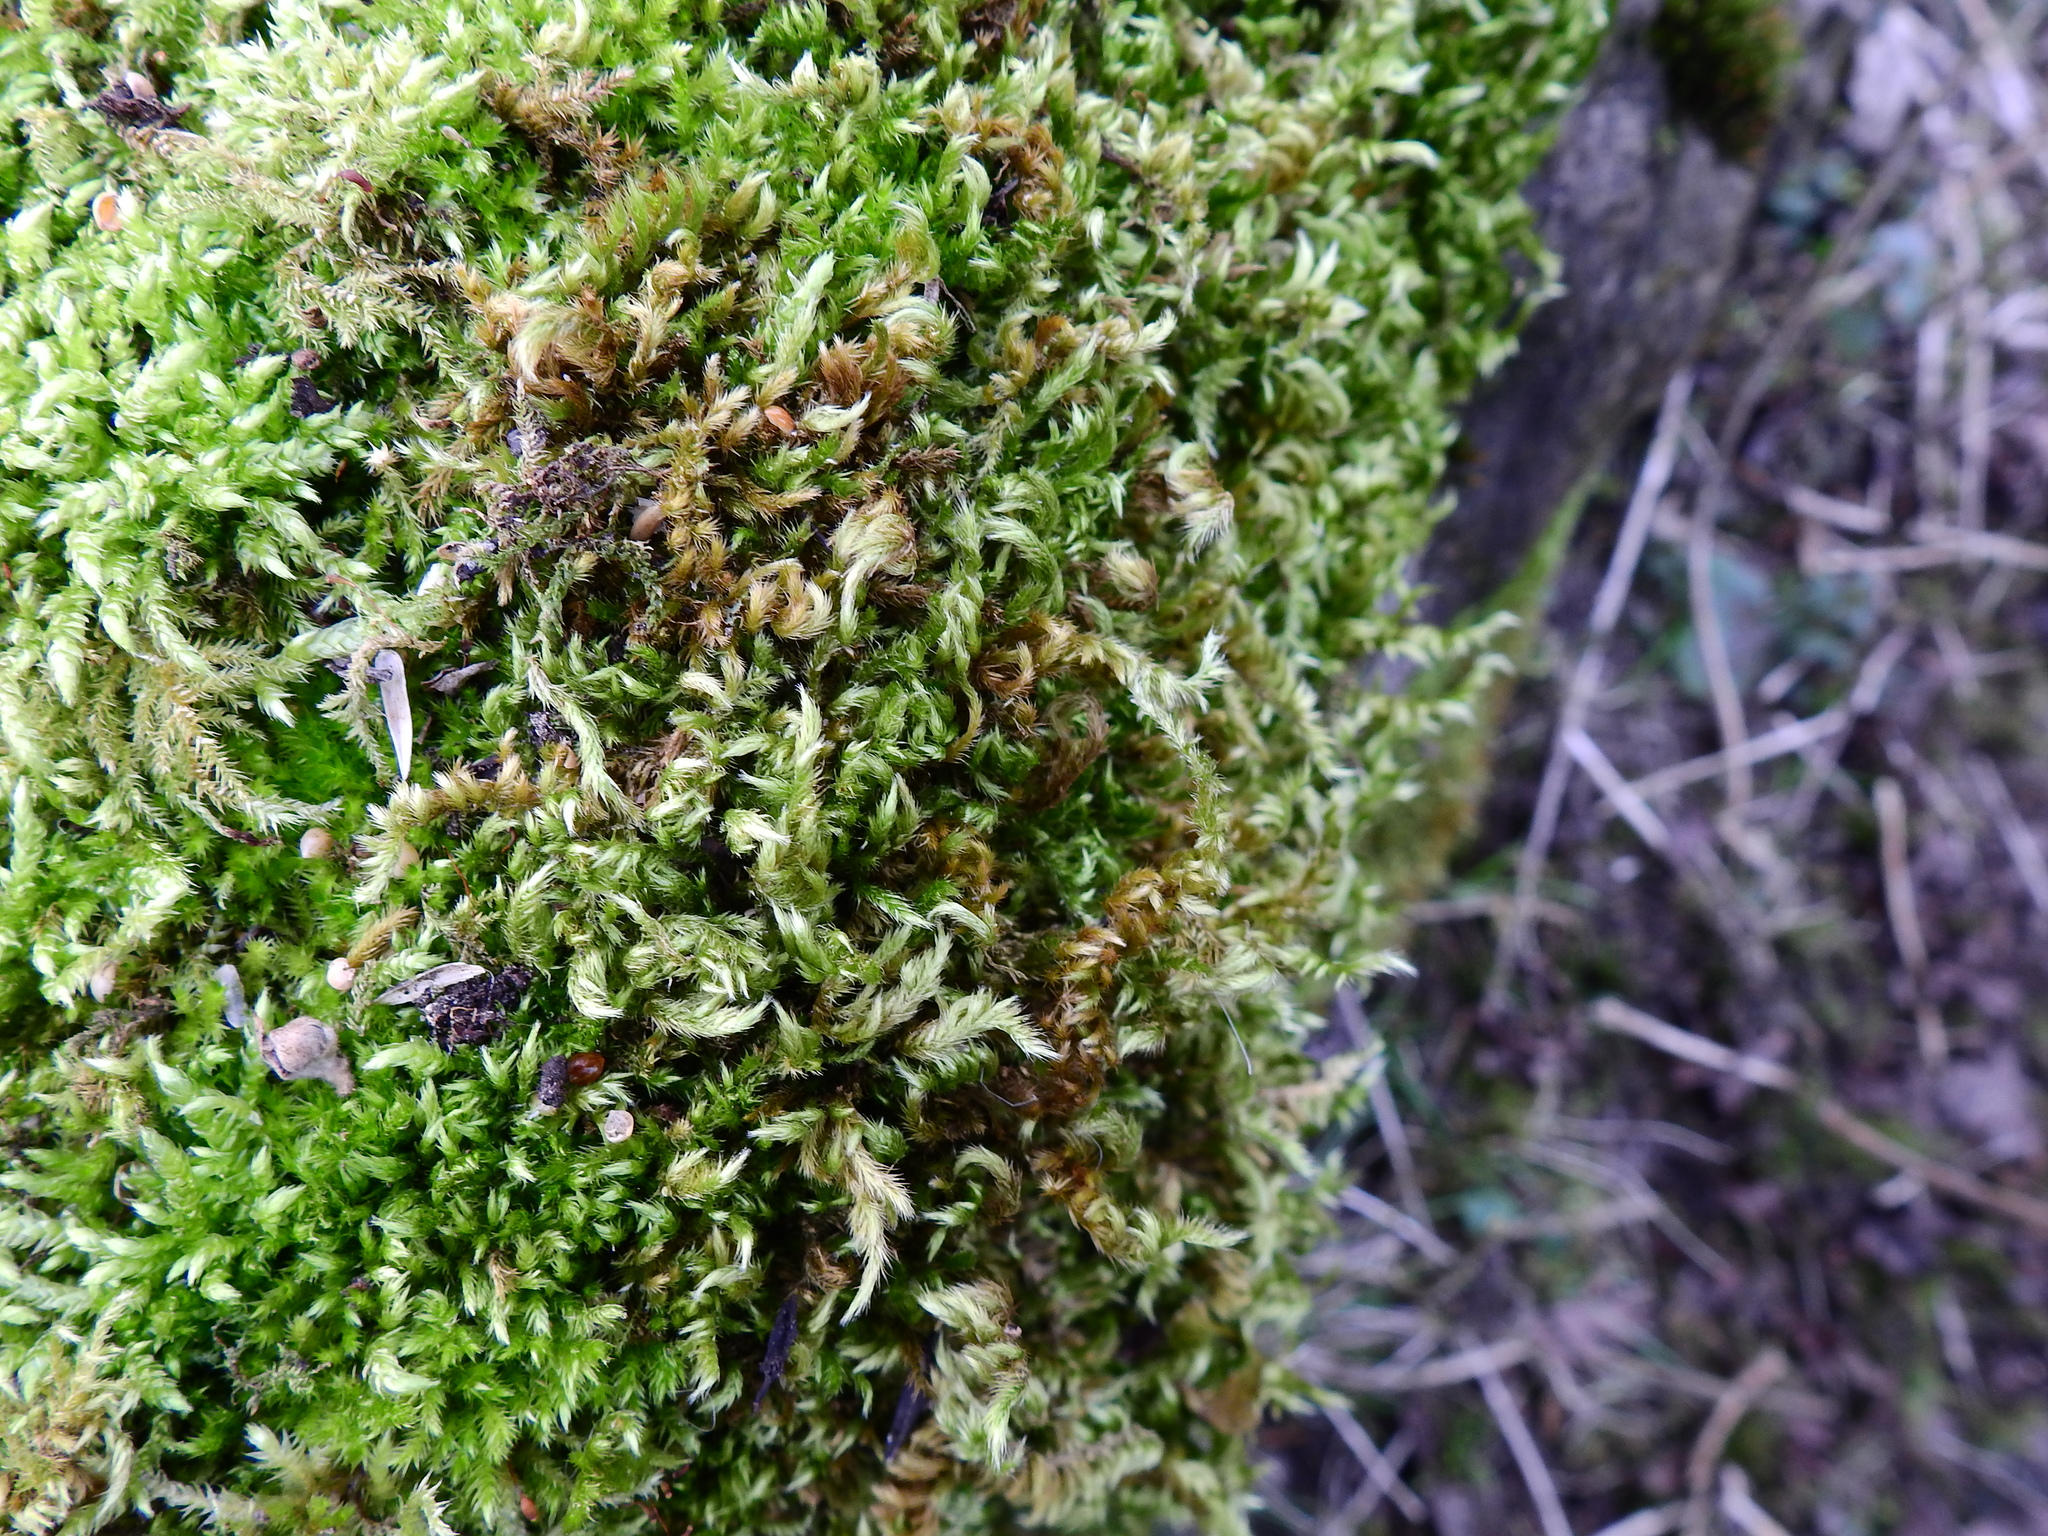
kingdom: Plantae
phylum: Bryophyta
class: Bryopsida
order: Hypnales
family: Brachytheciaceae
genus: Homalothecium
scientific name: Homalothecium sericeum
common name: Silky wall feather-moss
